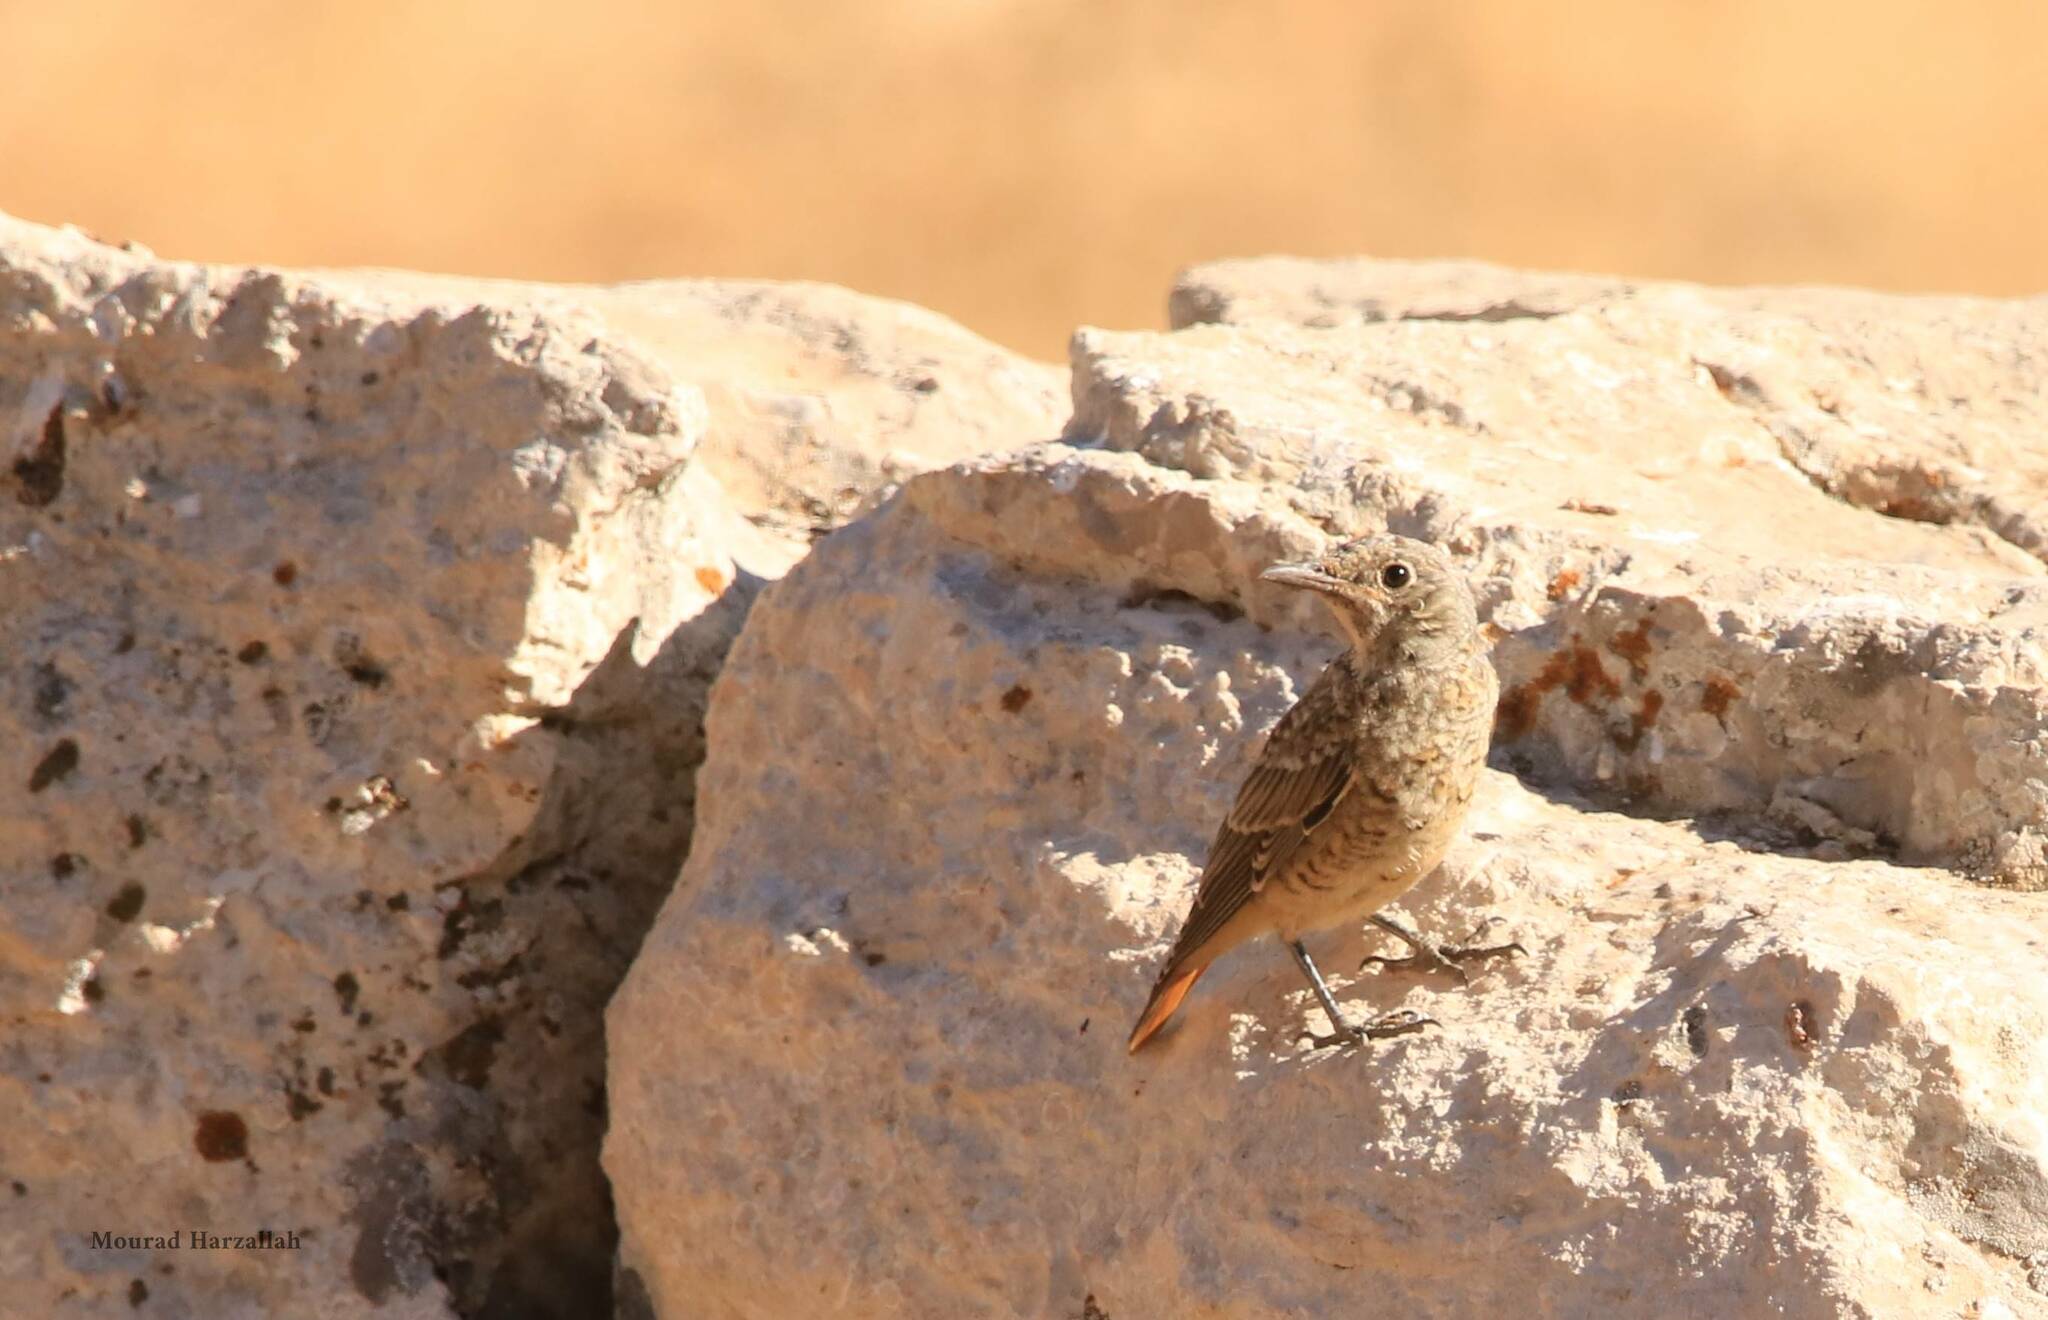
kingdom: Animalia
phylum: Chordata
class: Aves
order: Passeriformes
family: Muscicapidae
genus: Monticola
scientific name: Monticola saxatilis
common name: Rufous-tailed rock thrush
